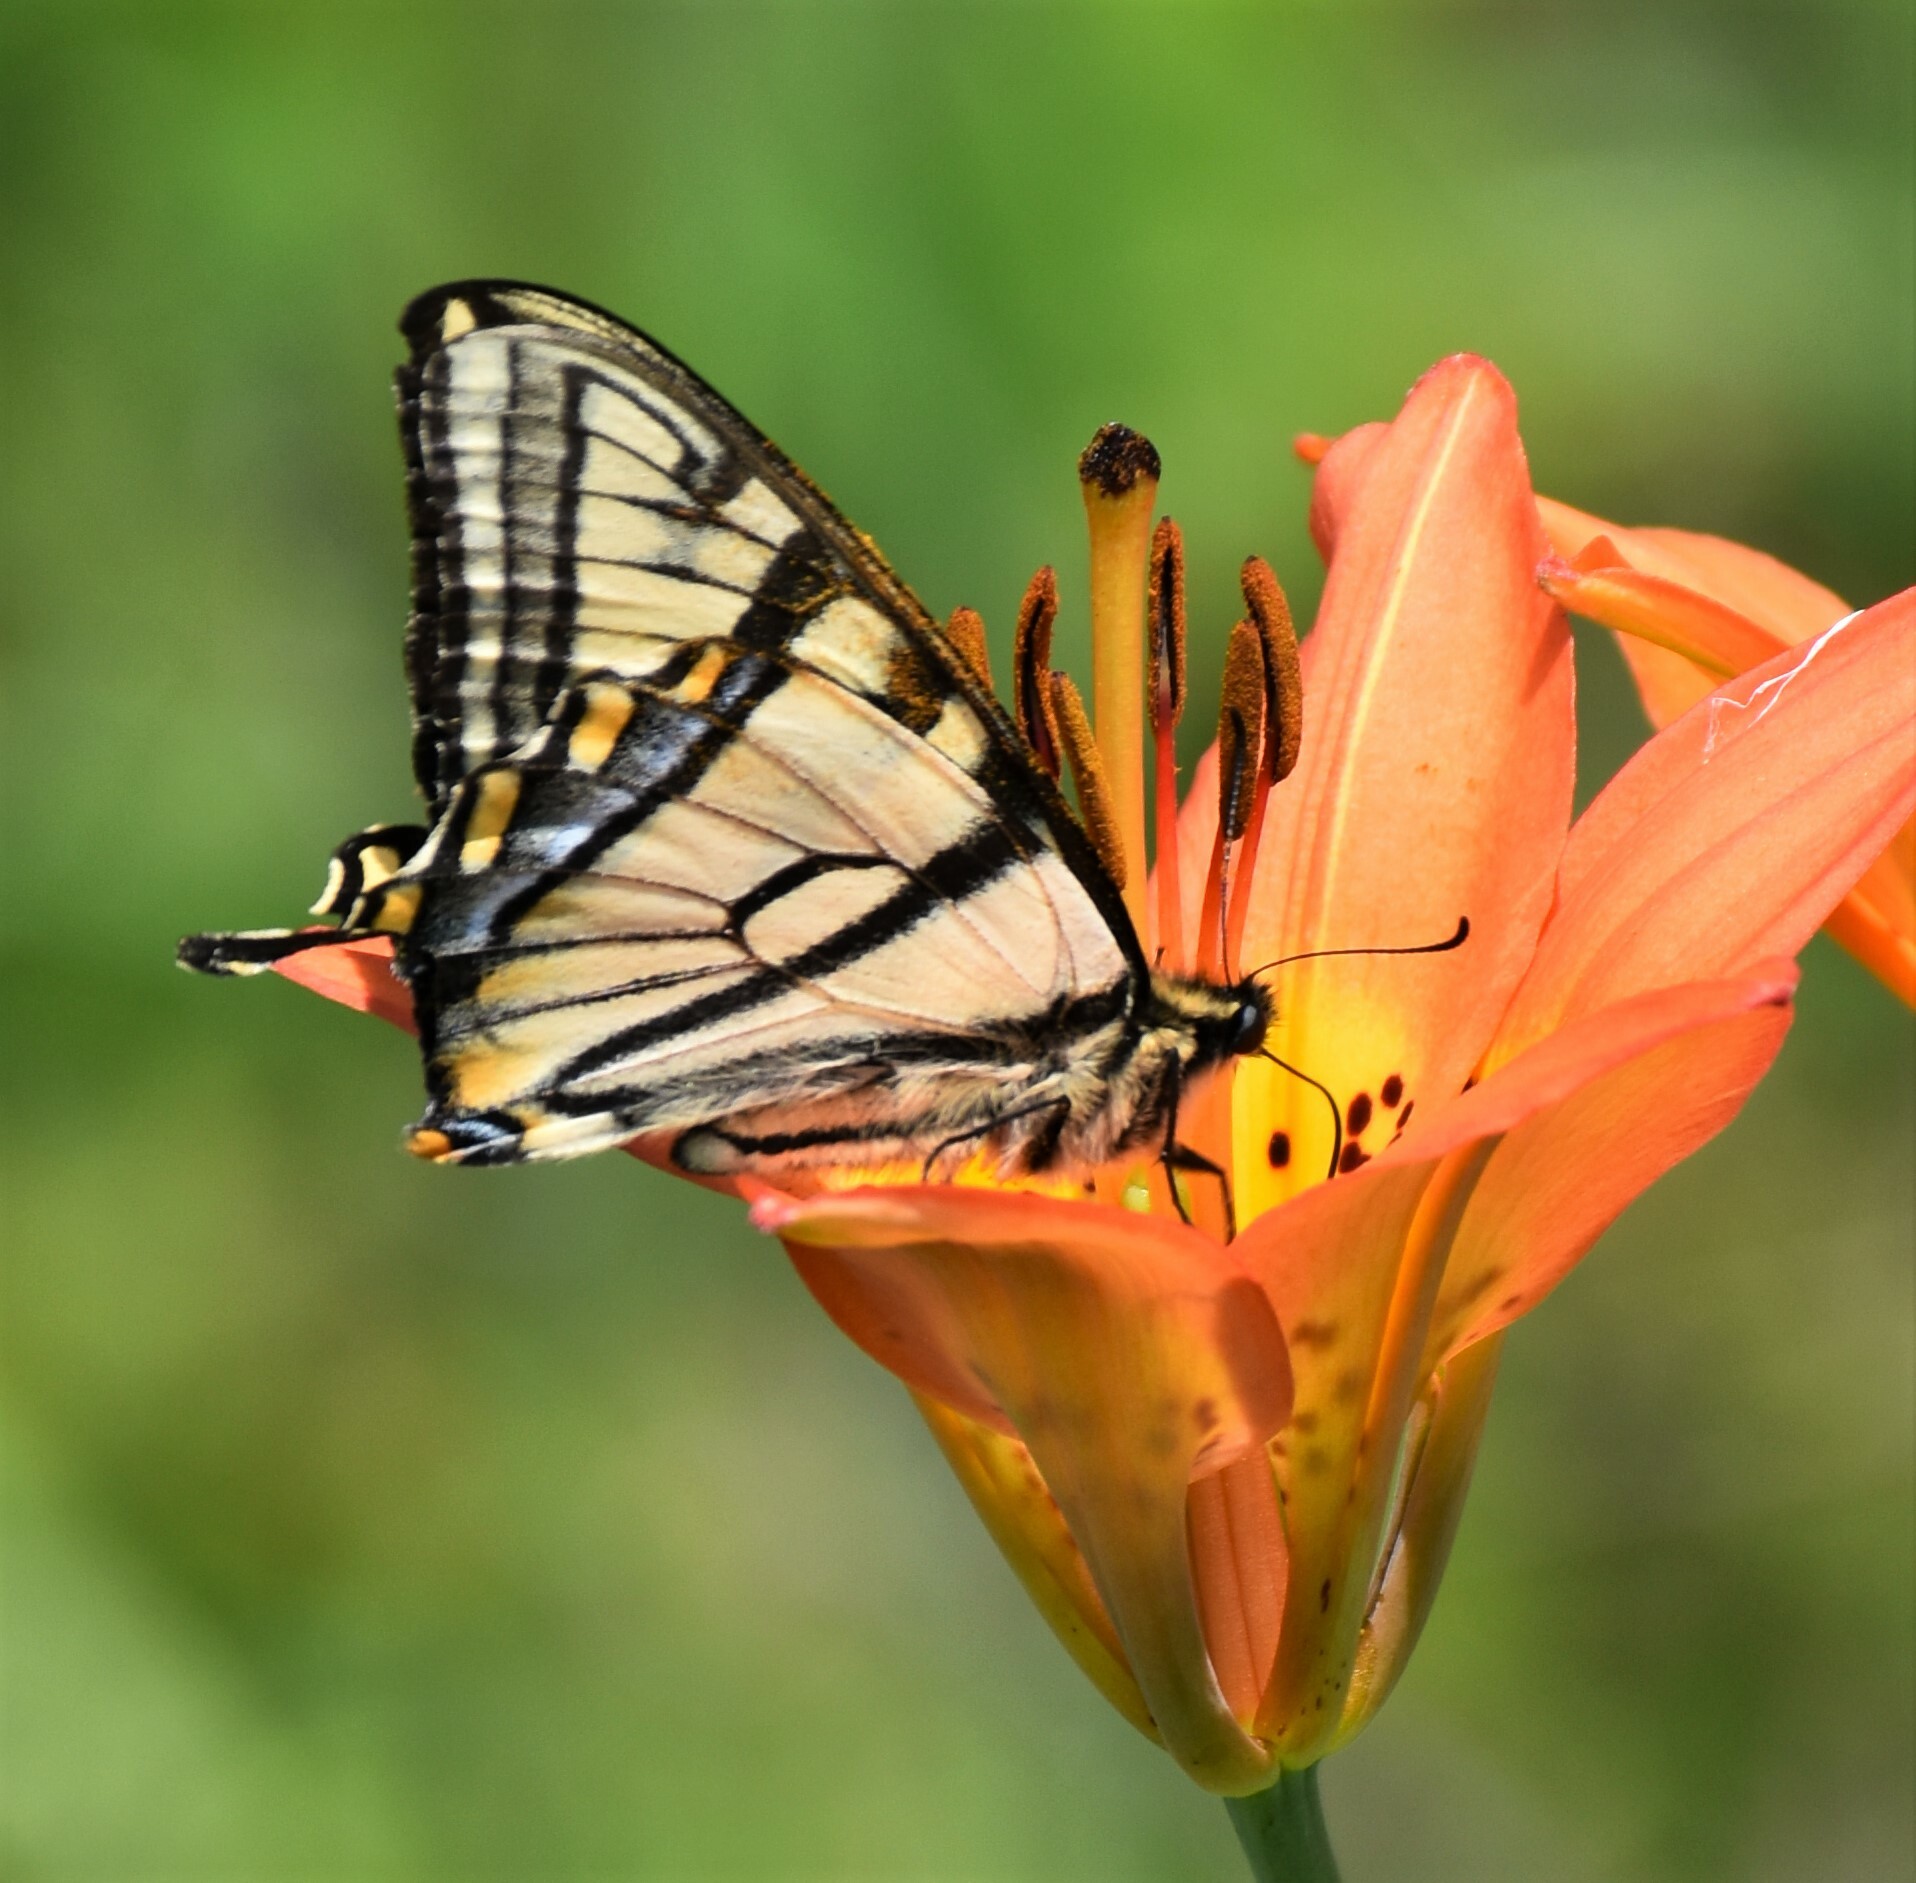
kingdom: Animalia
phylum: Arthropoda
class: Insecta
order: Lepidoptera
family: Papilionidae
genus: Papilio
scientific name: Papilio canadensis
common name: Canadian tiger swallowtail
